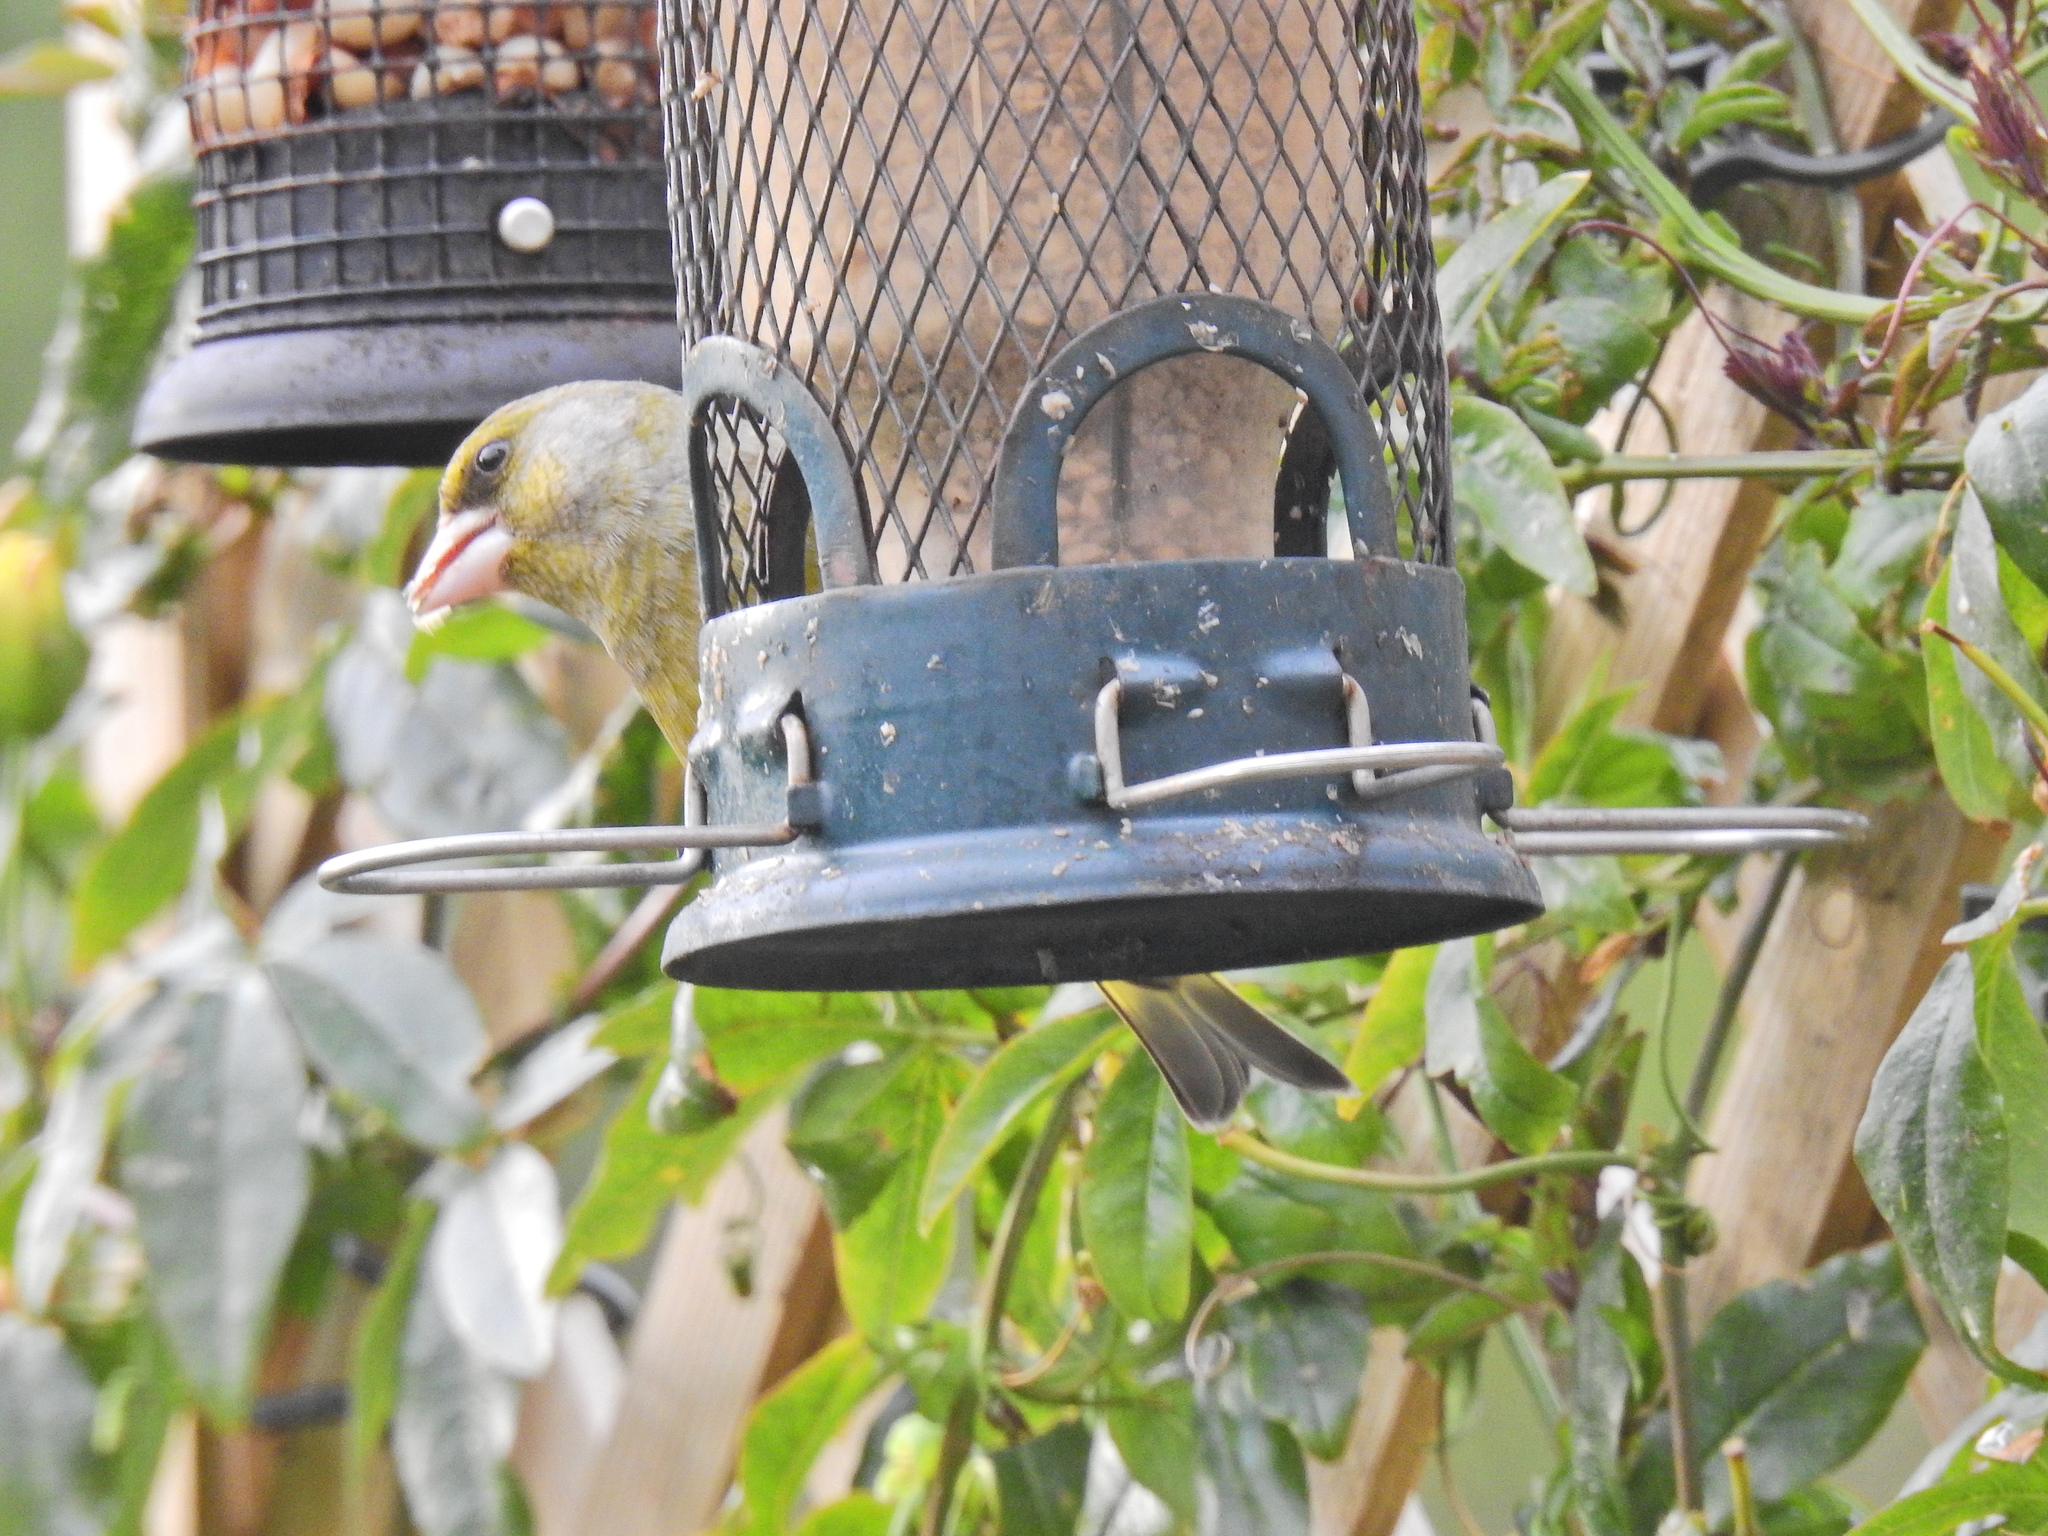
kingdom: Plantae
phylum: Tracheophyta
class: Liliopsida
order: Poales
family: Poaceae
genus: Chloris
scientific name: Chloris chloris
